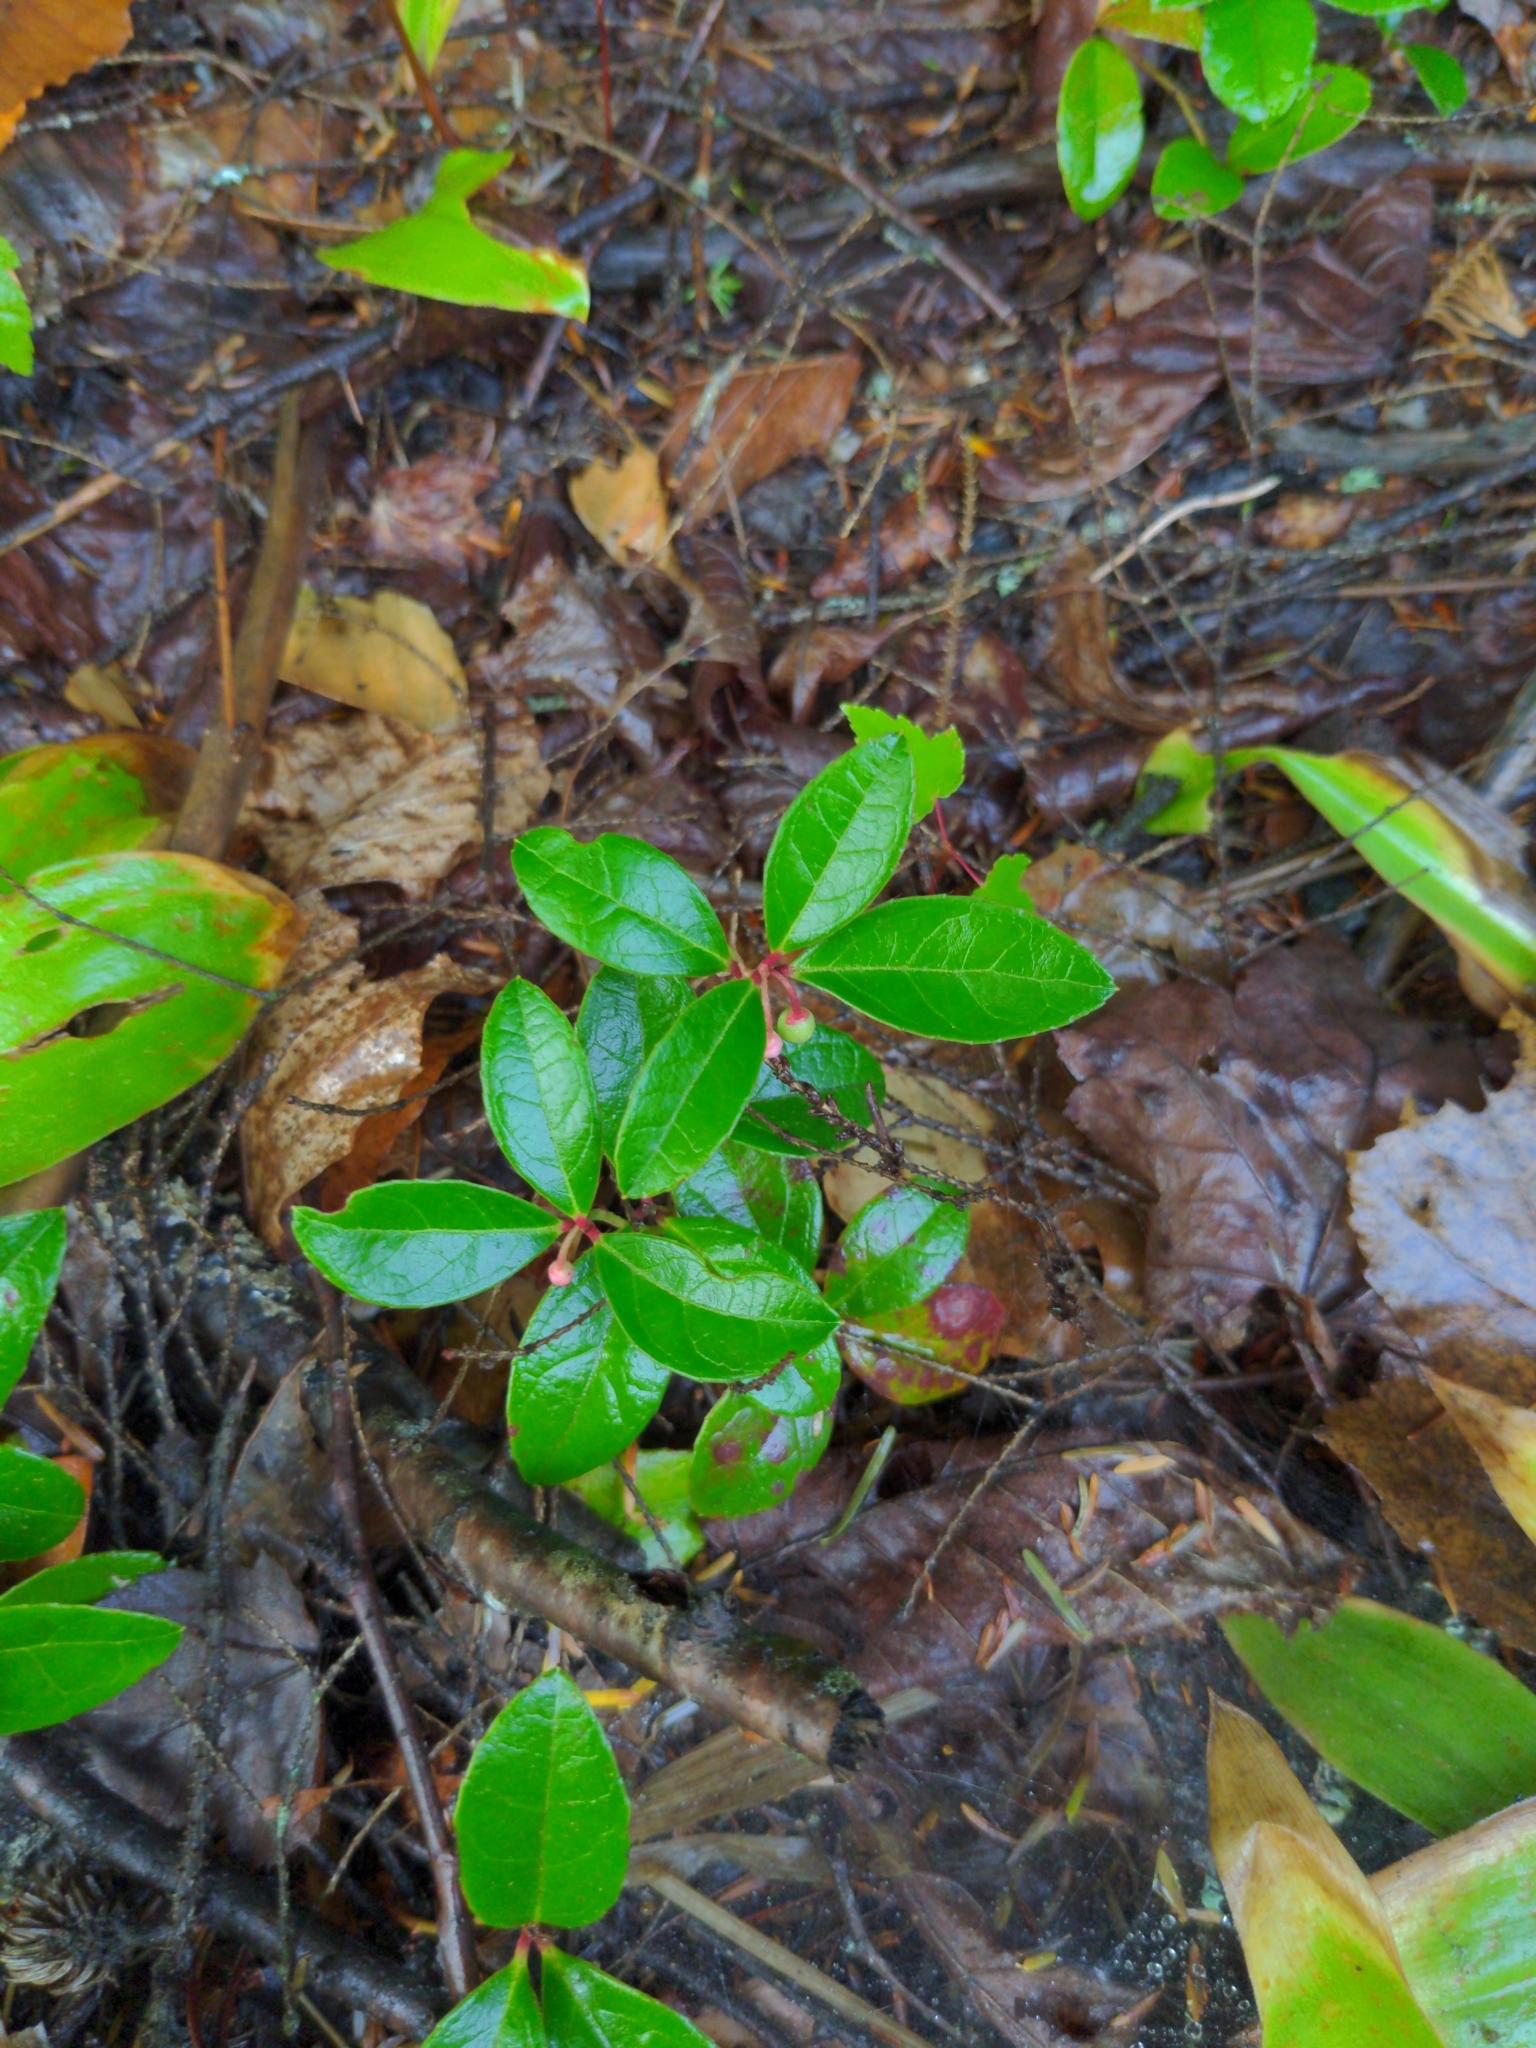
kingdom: Plantae
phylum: Tracheophyta
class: Magnoliopsida
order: Ericales
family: Ericaceae
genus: Gaultheria
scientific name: Gaultheria procumbens
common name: Checkerberry
